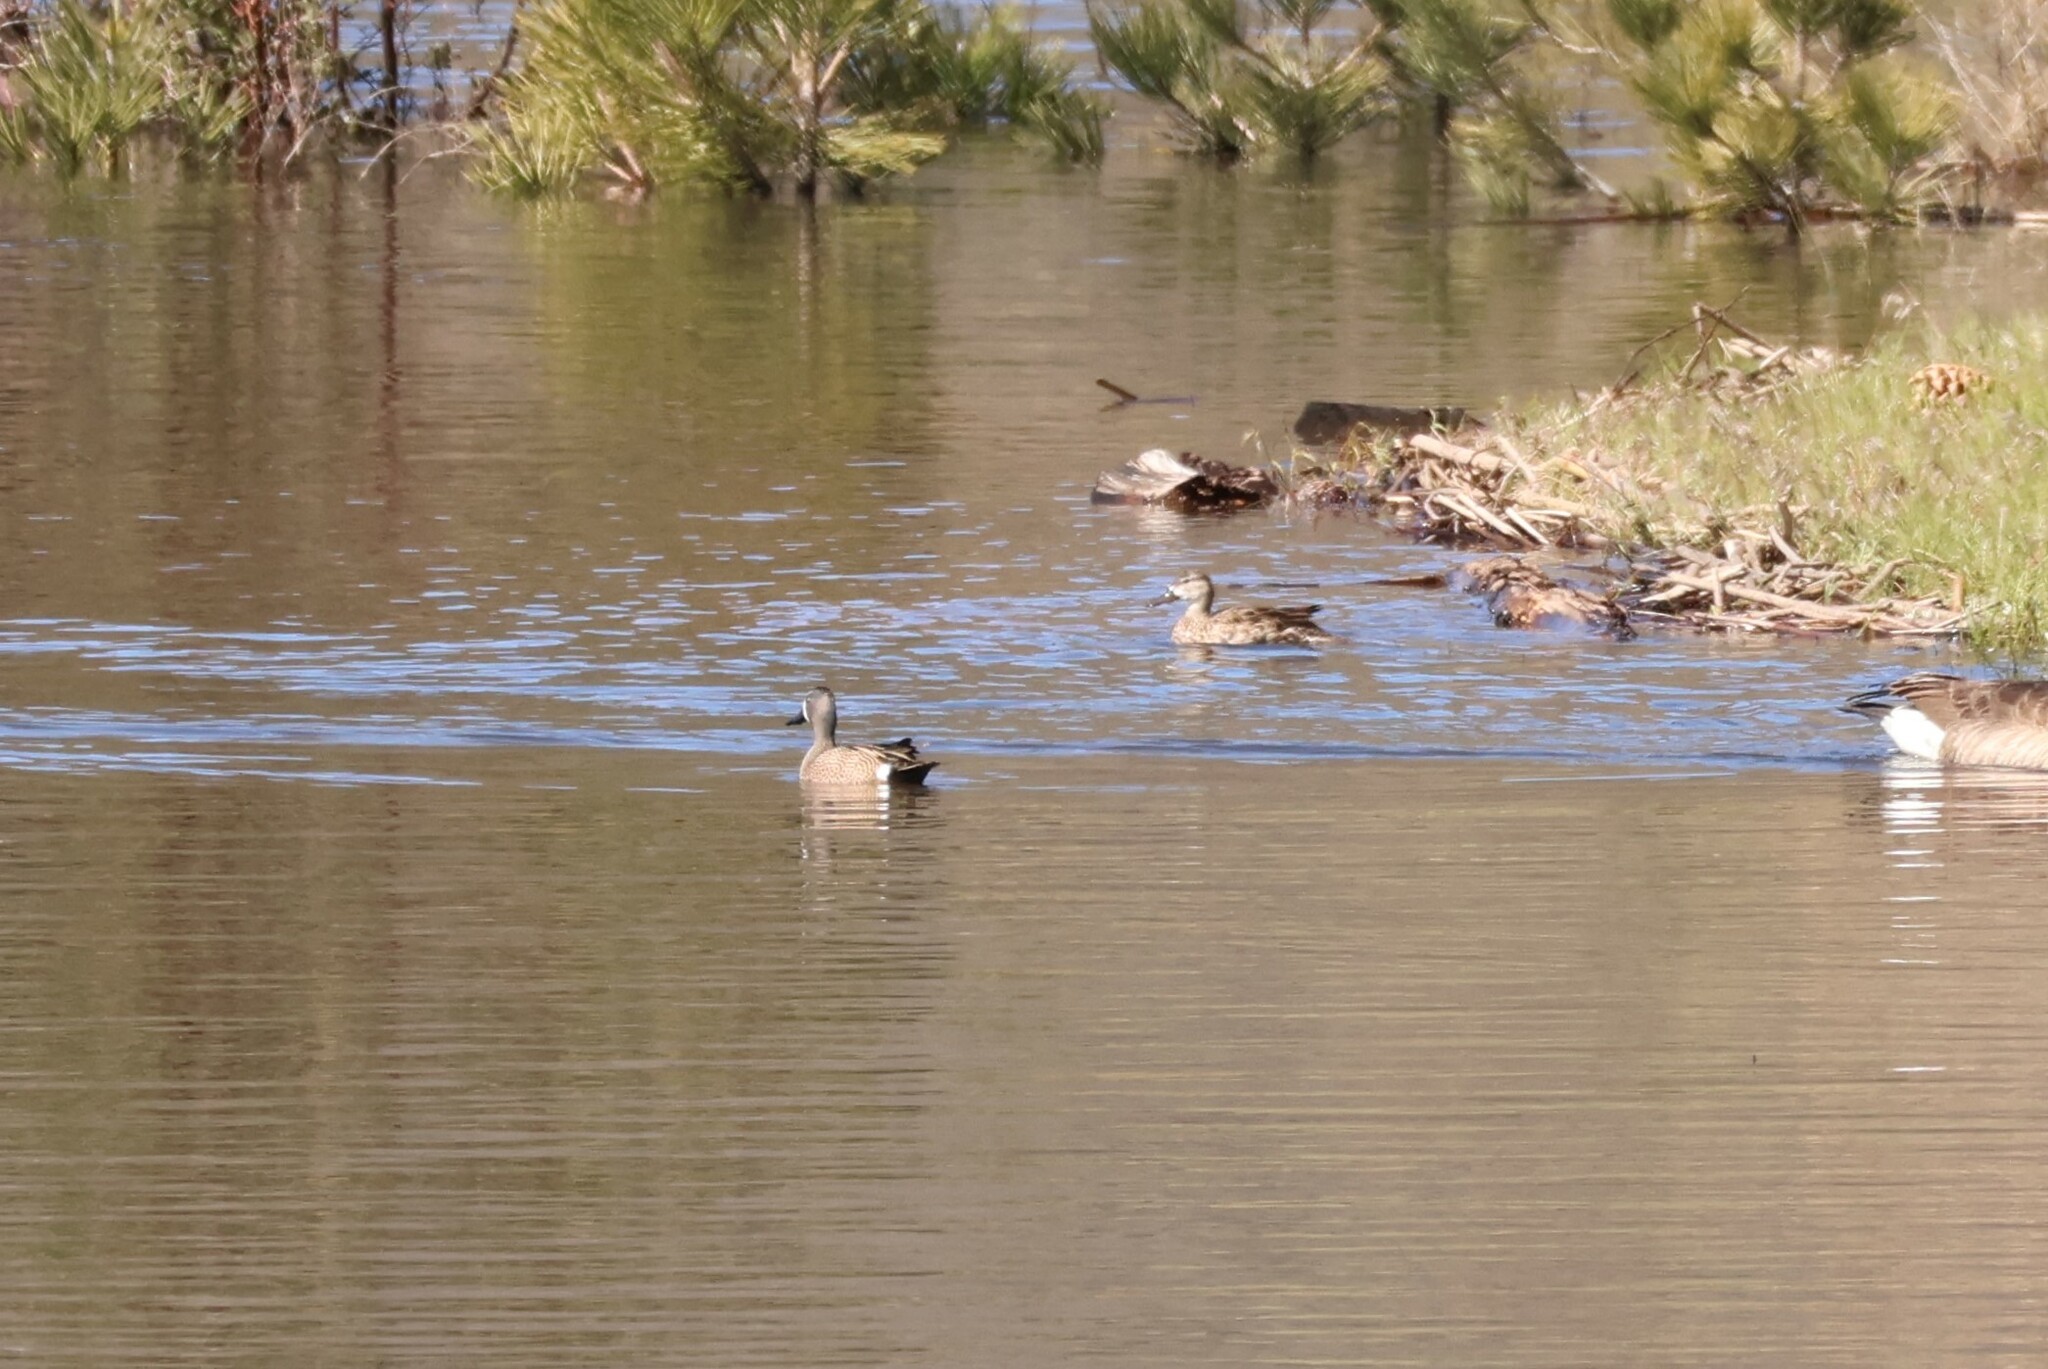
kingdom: Animalia
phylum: Chordata
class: Aves
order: Anseriformes
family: Anatidae
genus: Spatula
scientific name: Spatula discors
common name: Blue-winged teal
